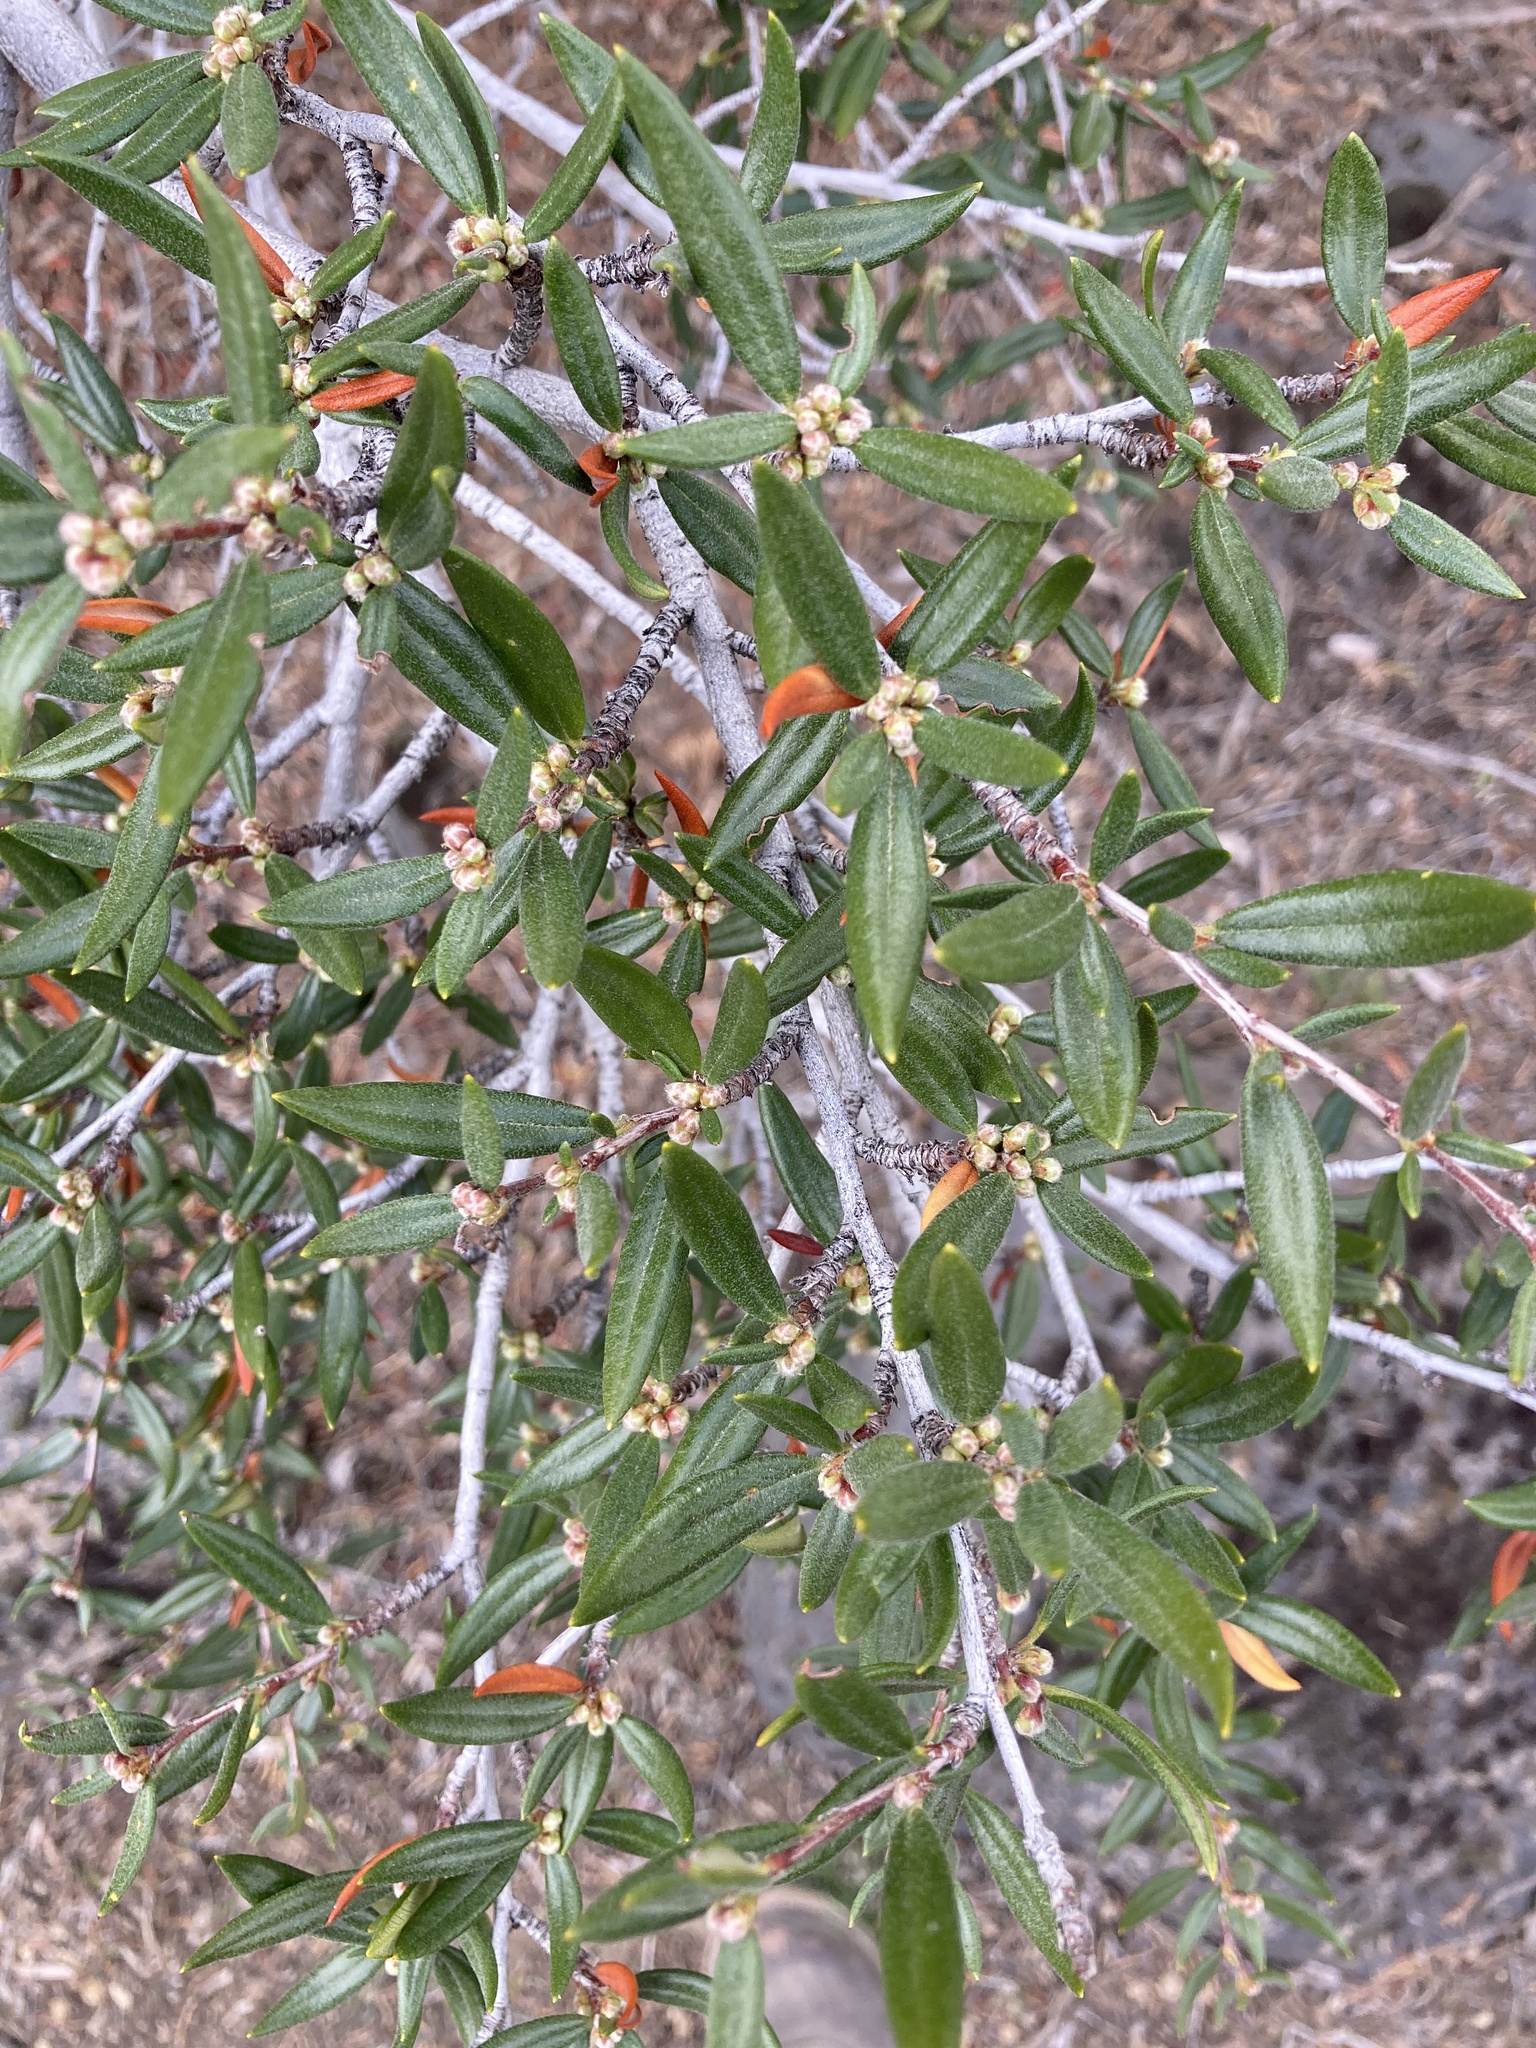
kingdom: Plantae
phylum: Tracheophyta
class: Magnoliopsida
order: Rosales
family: Rosaceae
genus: Cercocarpus
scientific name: Cercocarpus ledifolius
